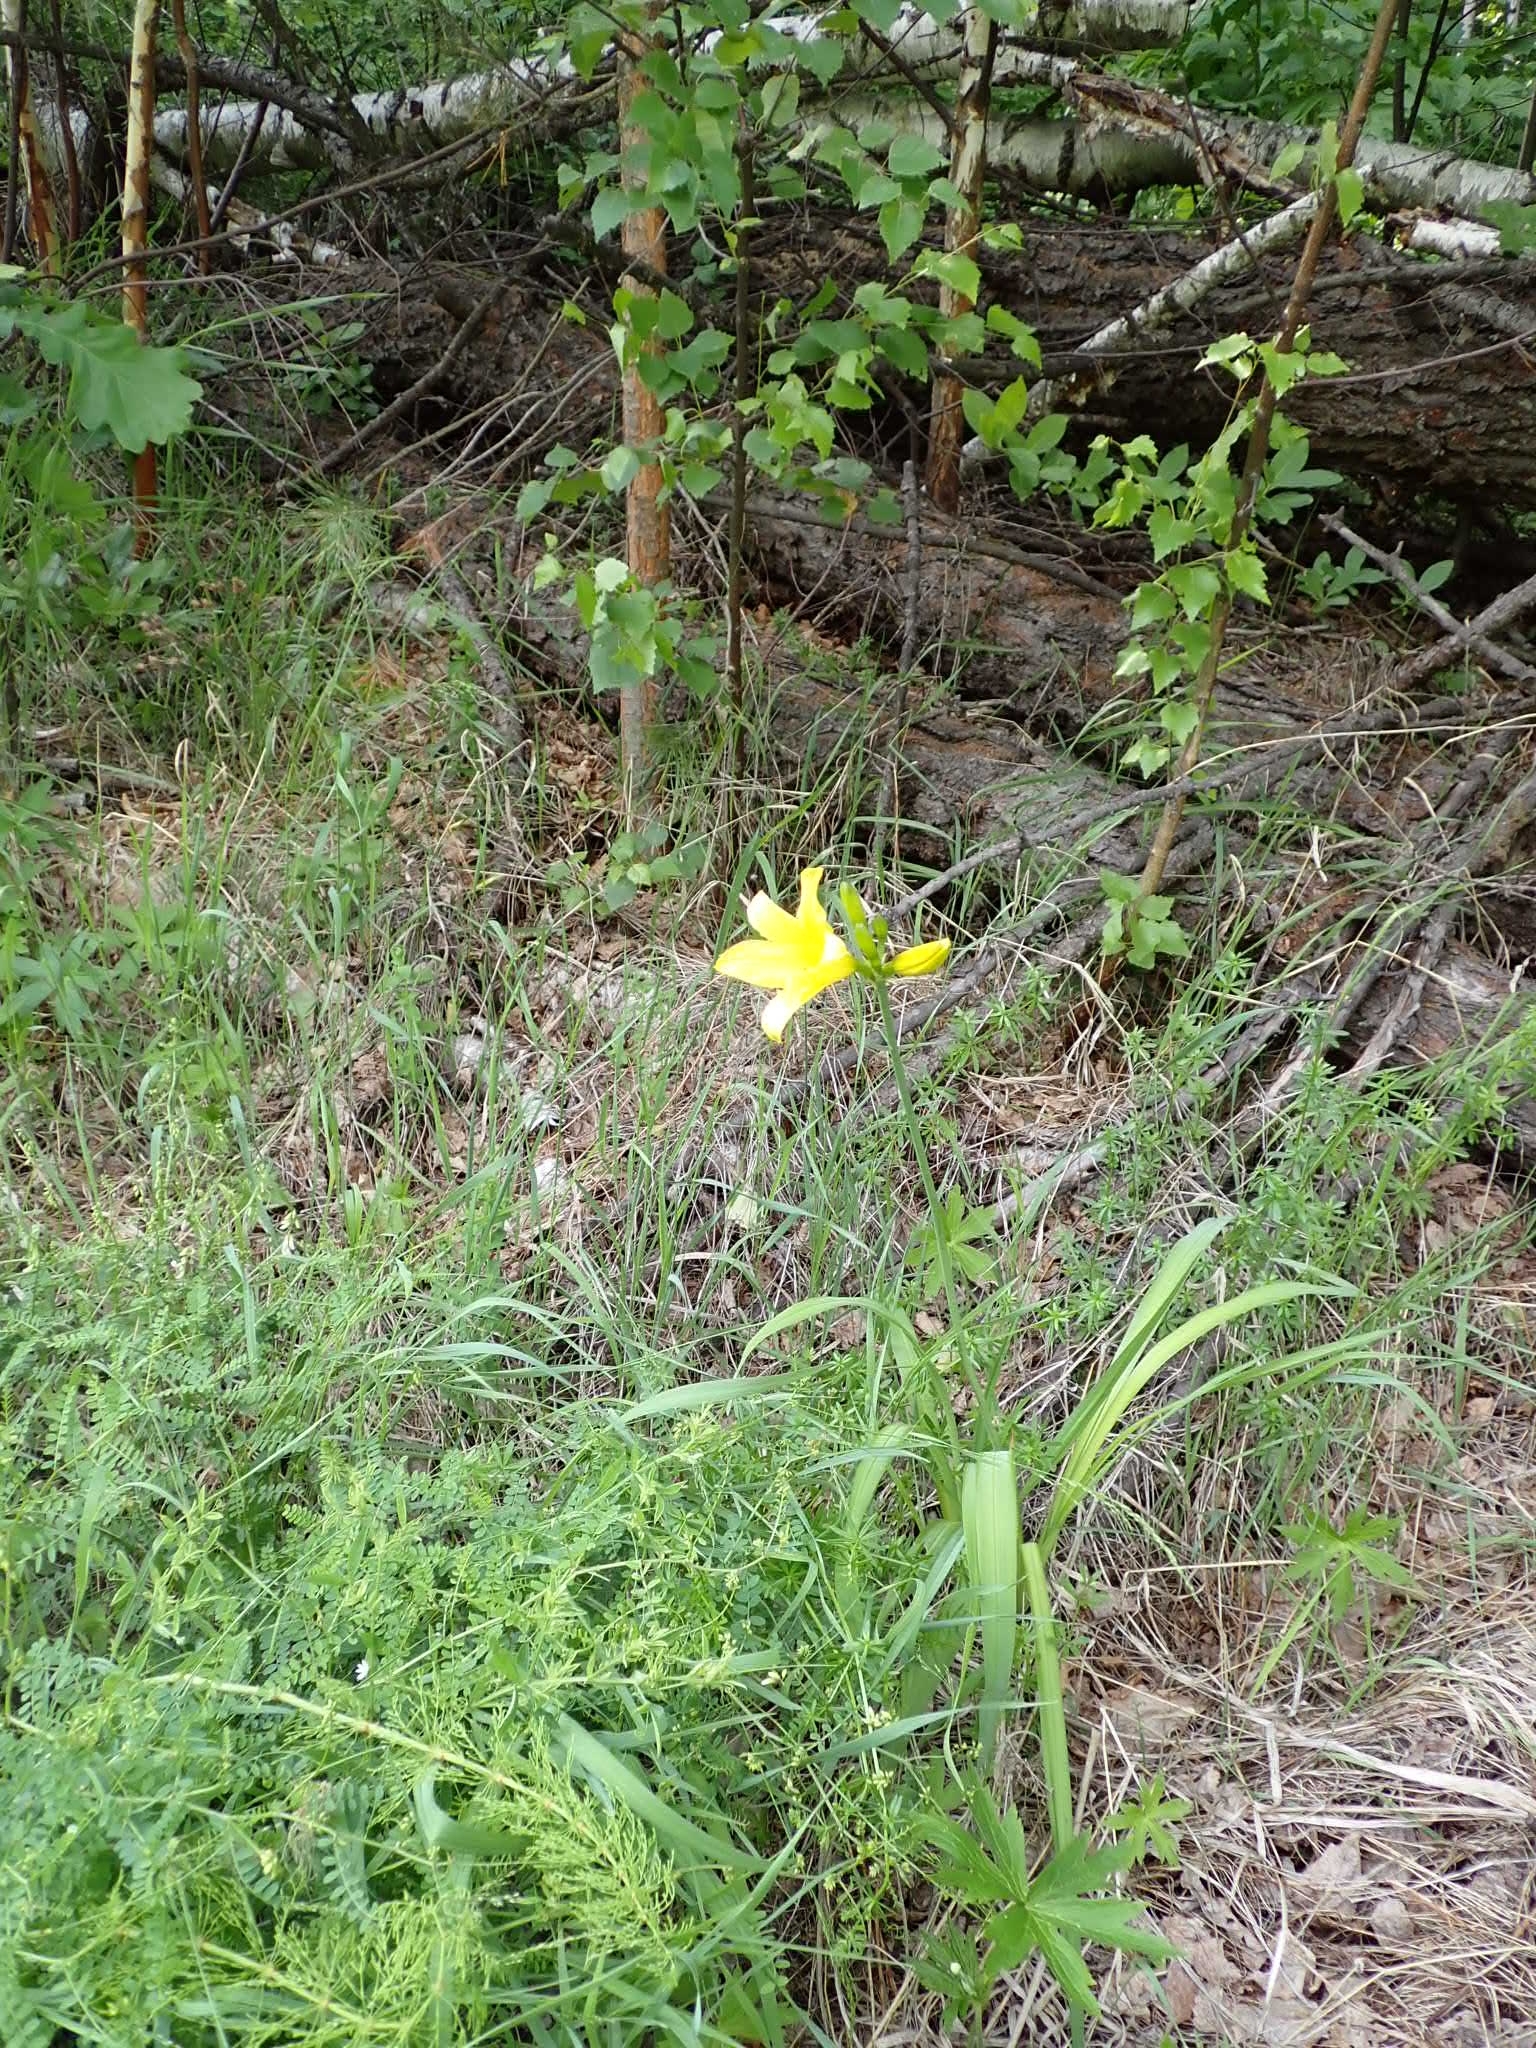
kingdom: Plantae
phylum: Tracheophyta
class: Liliopsida
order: Asparagales
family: Asphodelaceae
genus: Hemerocallis
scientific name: Hemerocallis minor
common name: Small daylily
